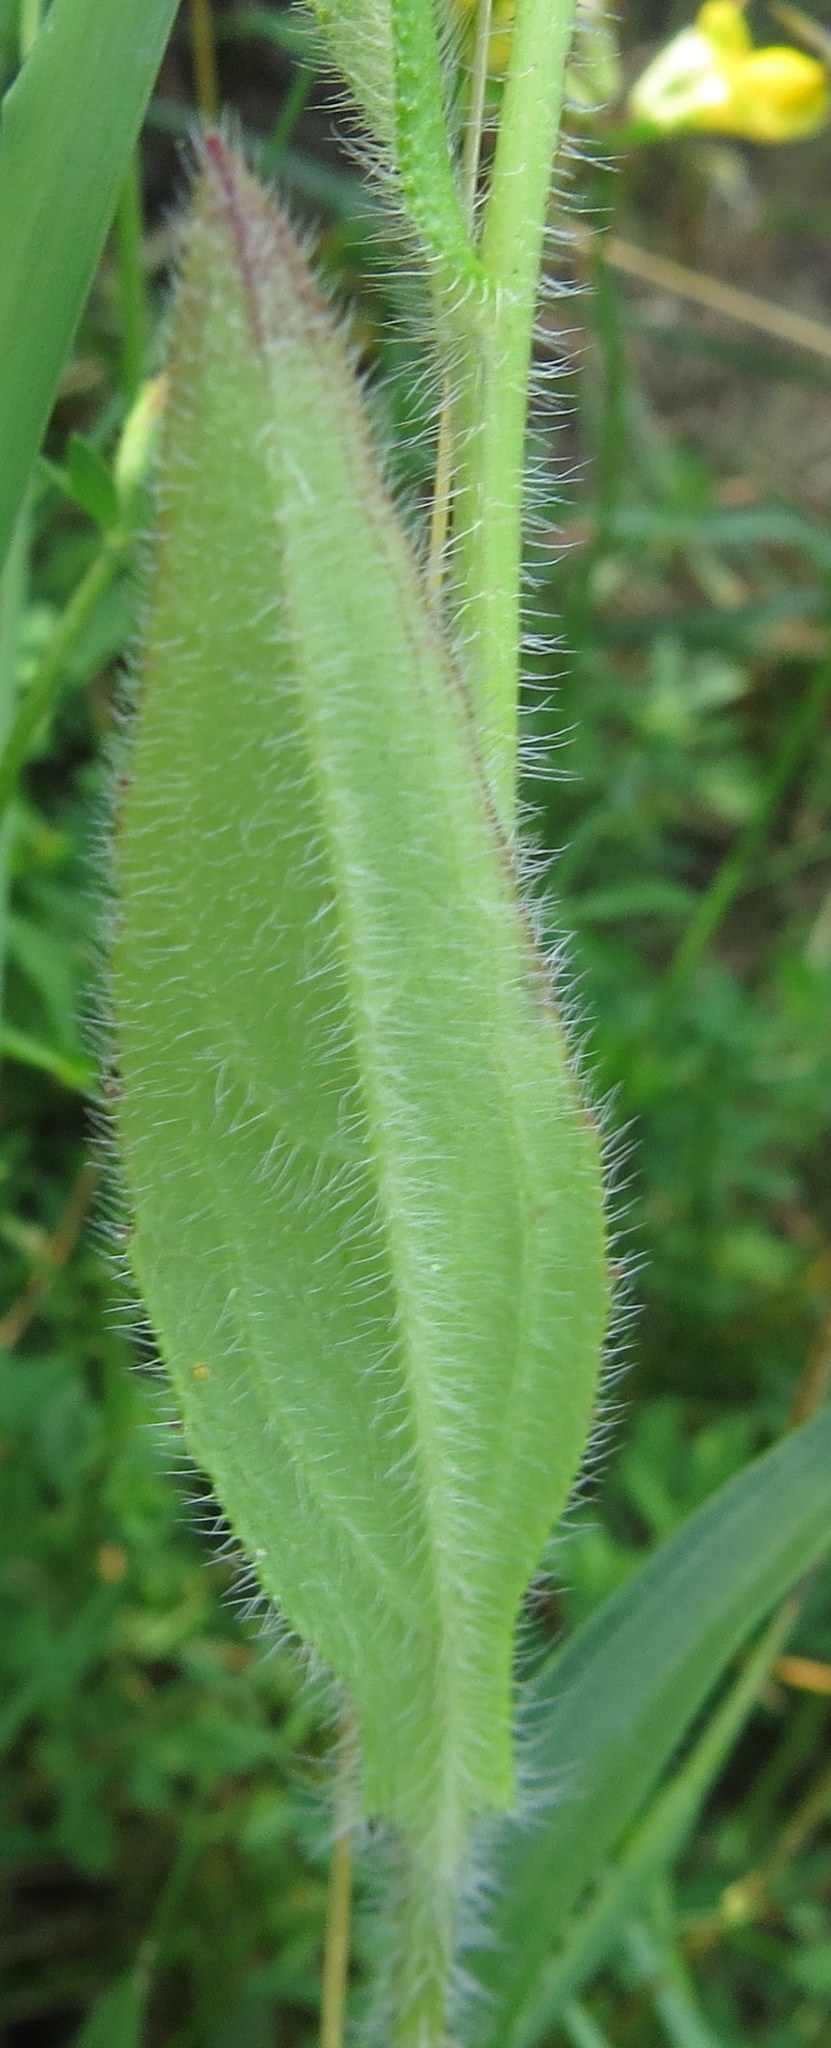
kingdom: Plantae
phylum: Tracheophyta
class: Magnoliopsida
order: Asterales
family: Asteraceae
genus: Rudbeckia
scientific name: Rudbeckia hirta
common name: Black-eyed-susan
